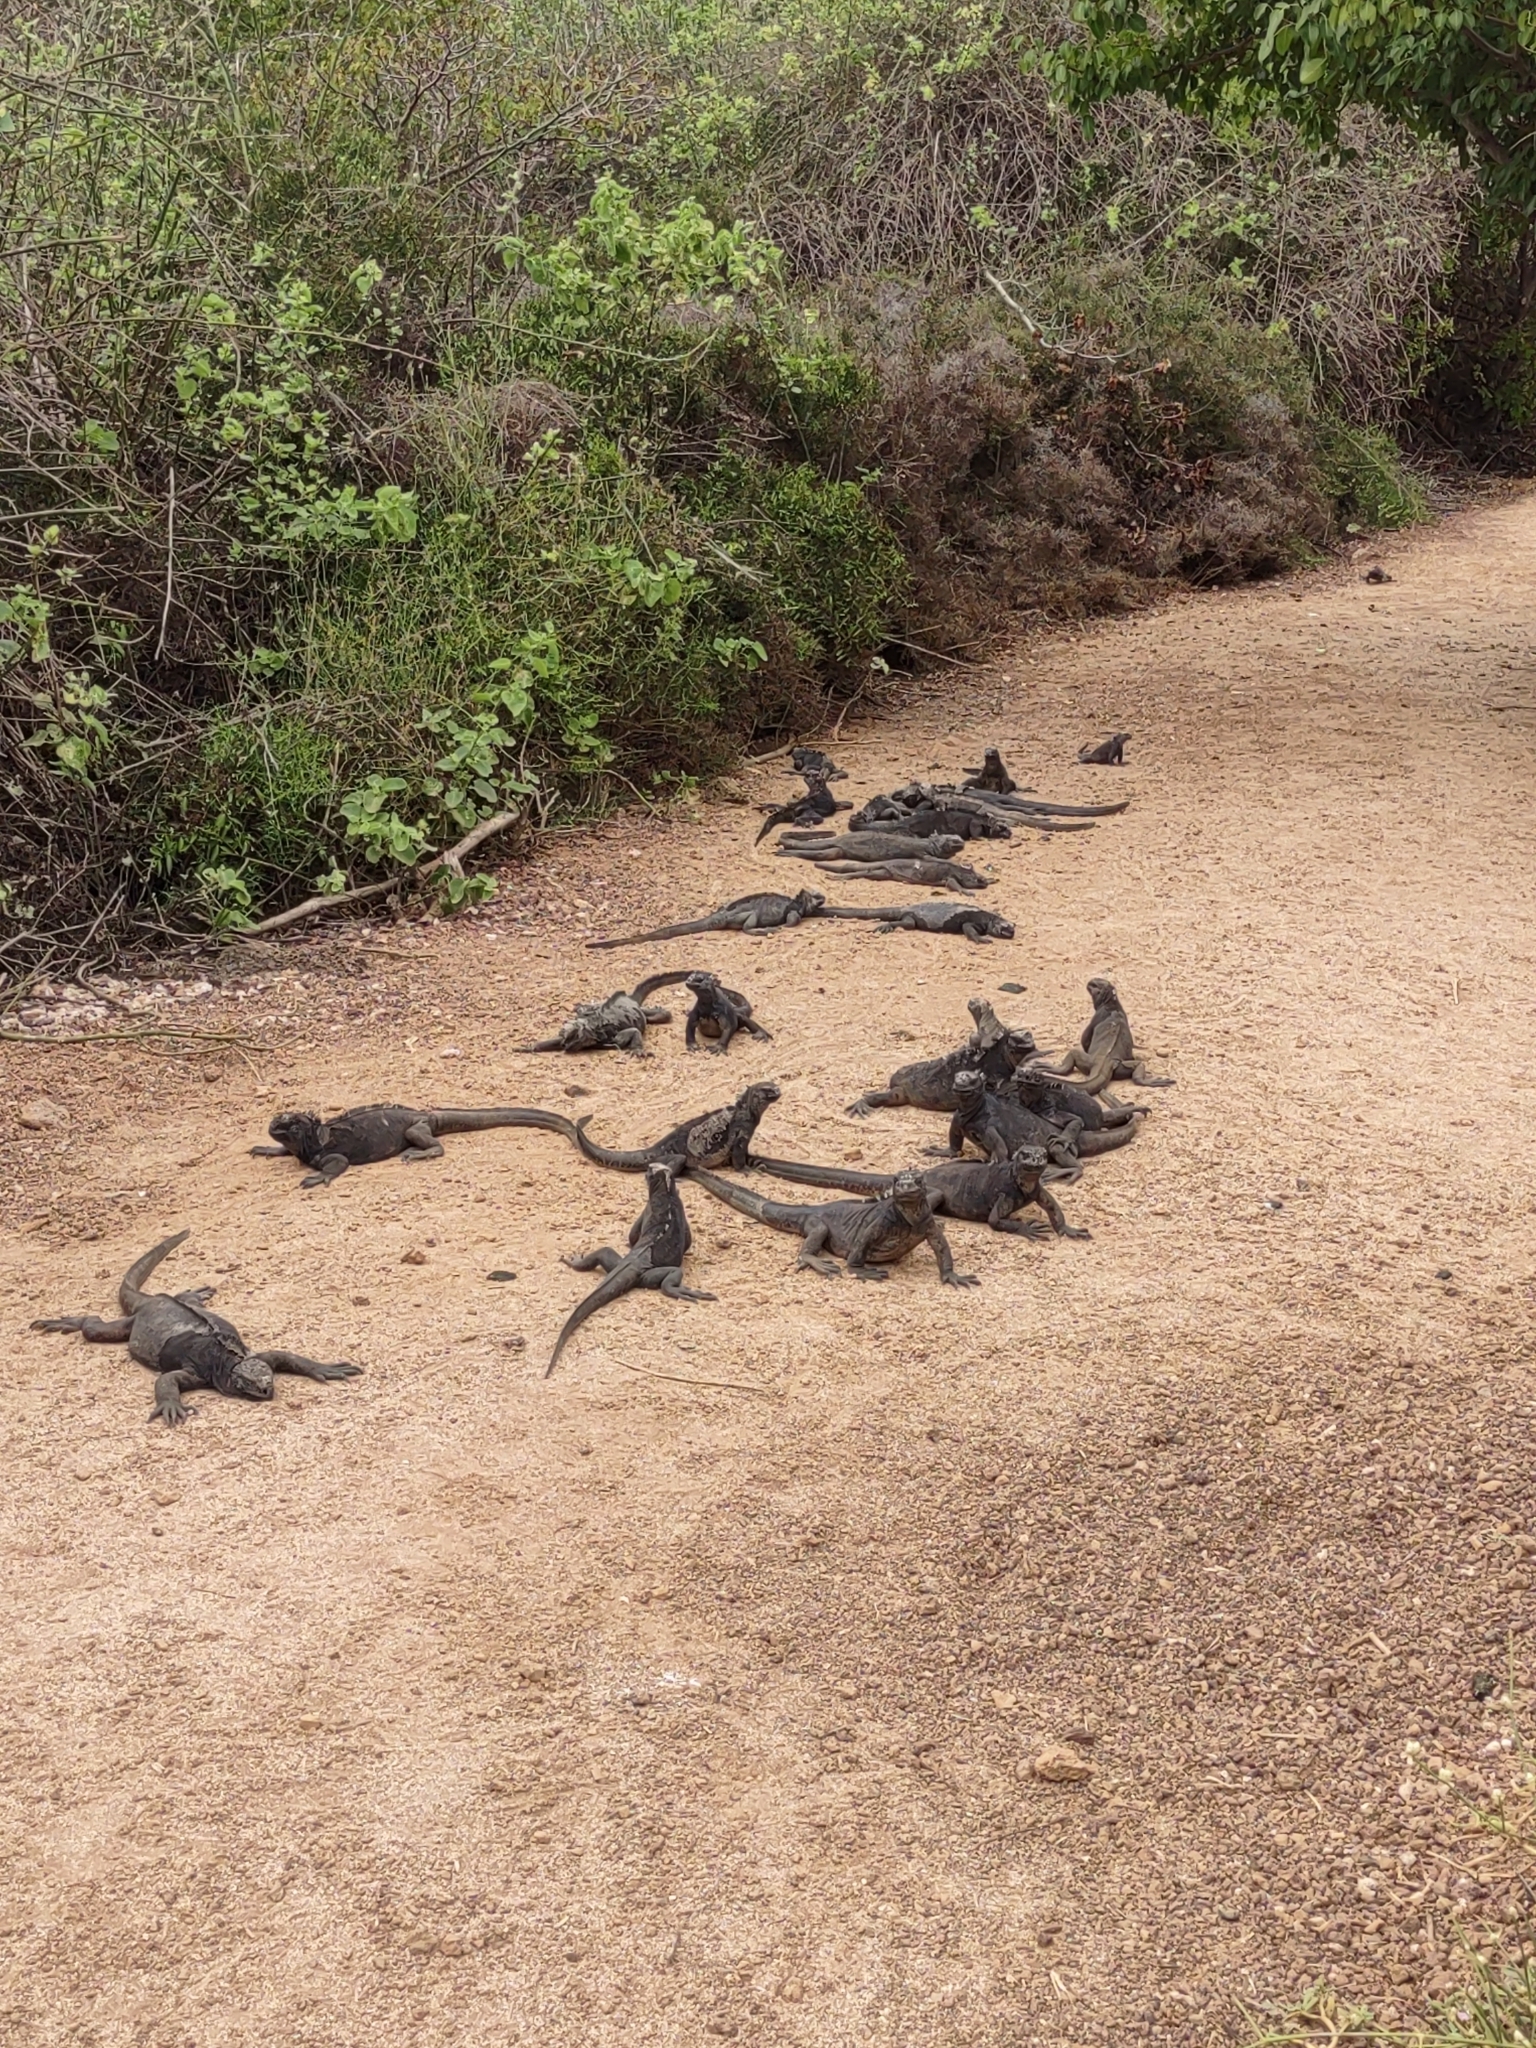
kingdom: Animalia
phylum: Chordata
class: Squamata
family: Iguanidae
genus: Amblyrhynchus
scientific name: Amblyrhynchus cristatus
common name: Marine iguana
